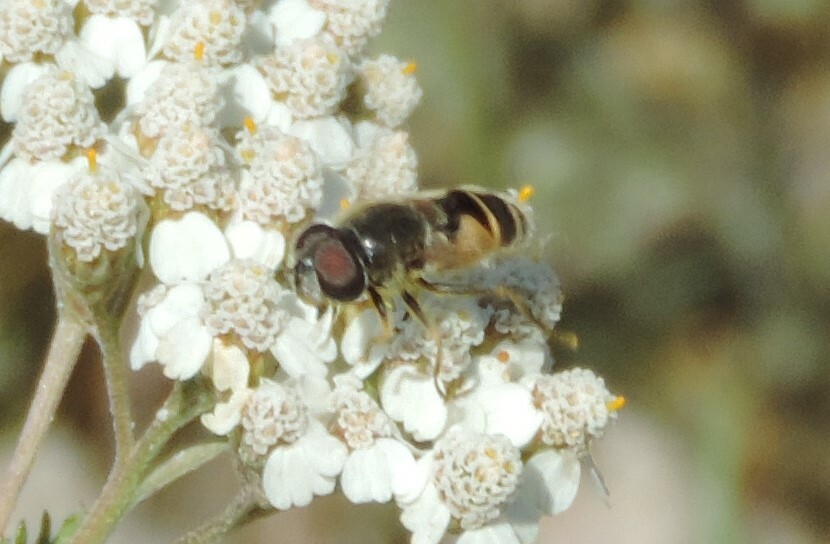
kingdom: Animalia
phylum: Arthropoda
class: Insecta
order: Diptera
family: Syrphidae
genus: Eristalis
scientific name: Eristalis hirta
